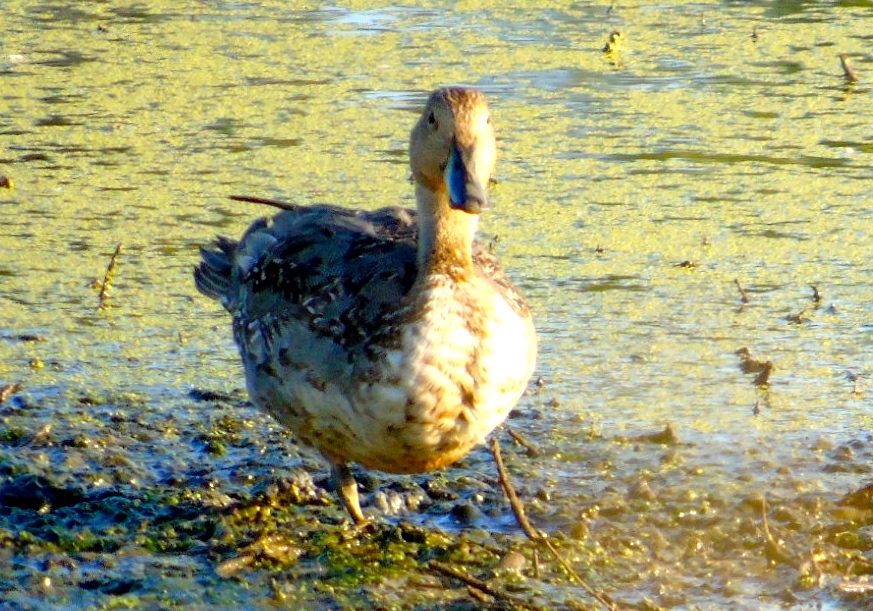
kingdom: Animalia
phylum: Chordata
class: Aves
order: Anseriformes
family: Anatidae
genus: Anas
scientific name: Anas acuta
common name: Northern pintail
